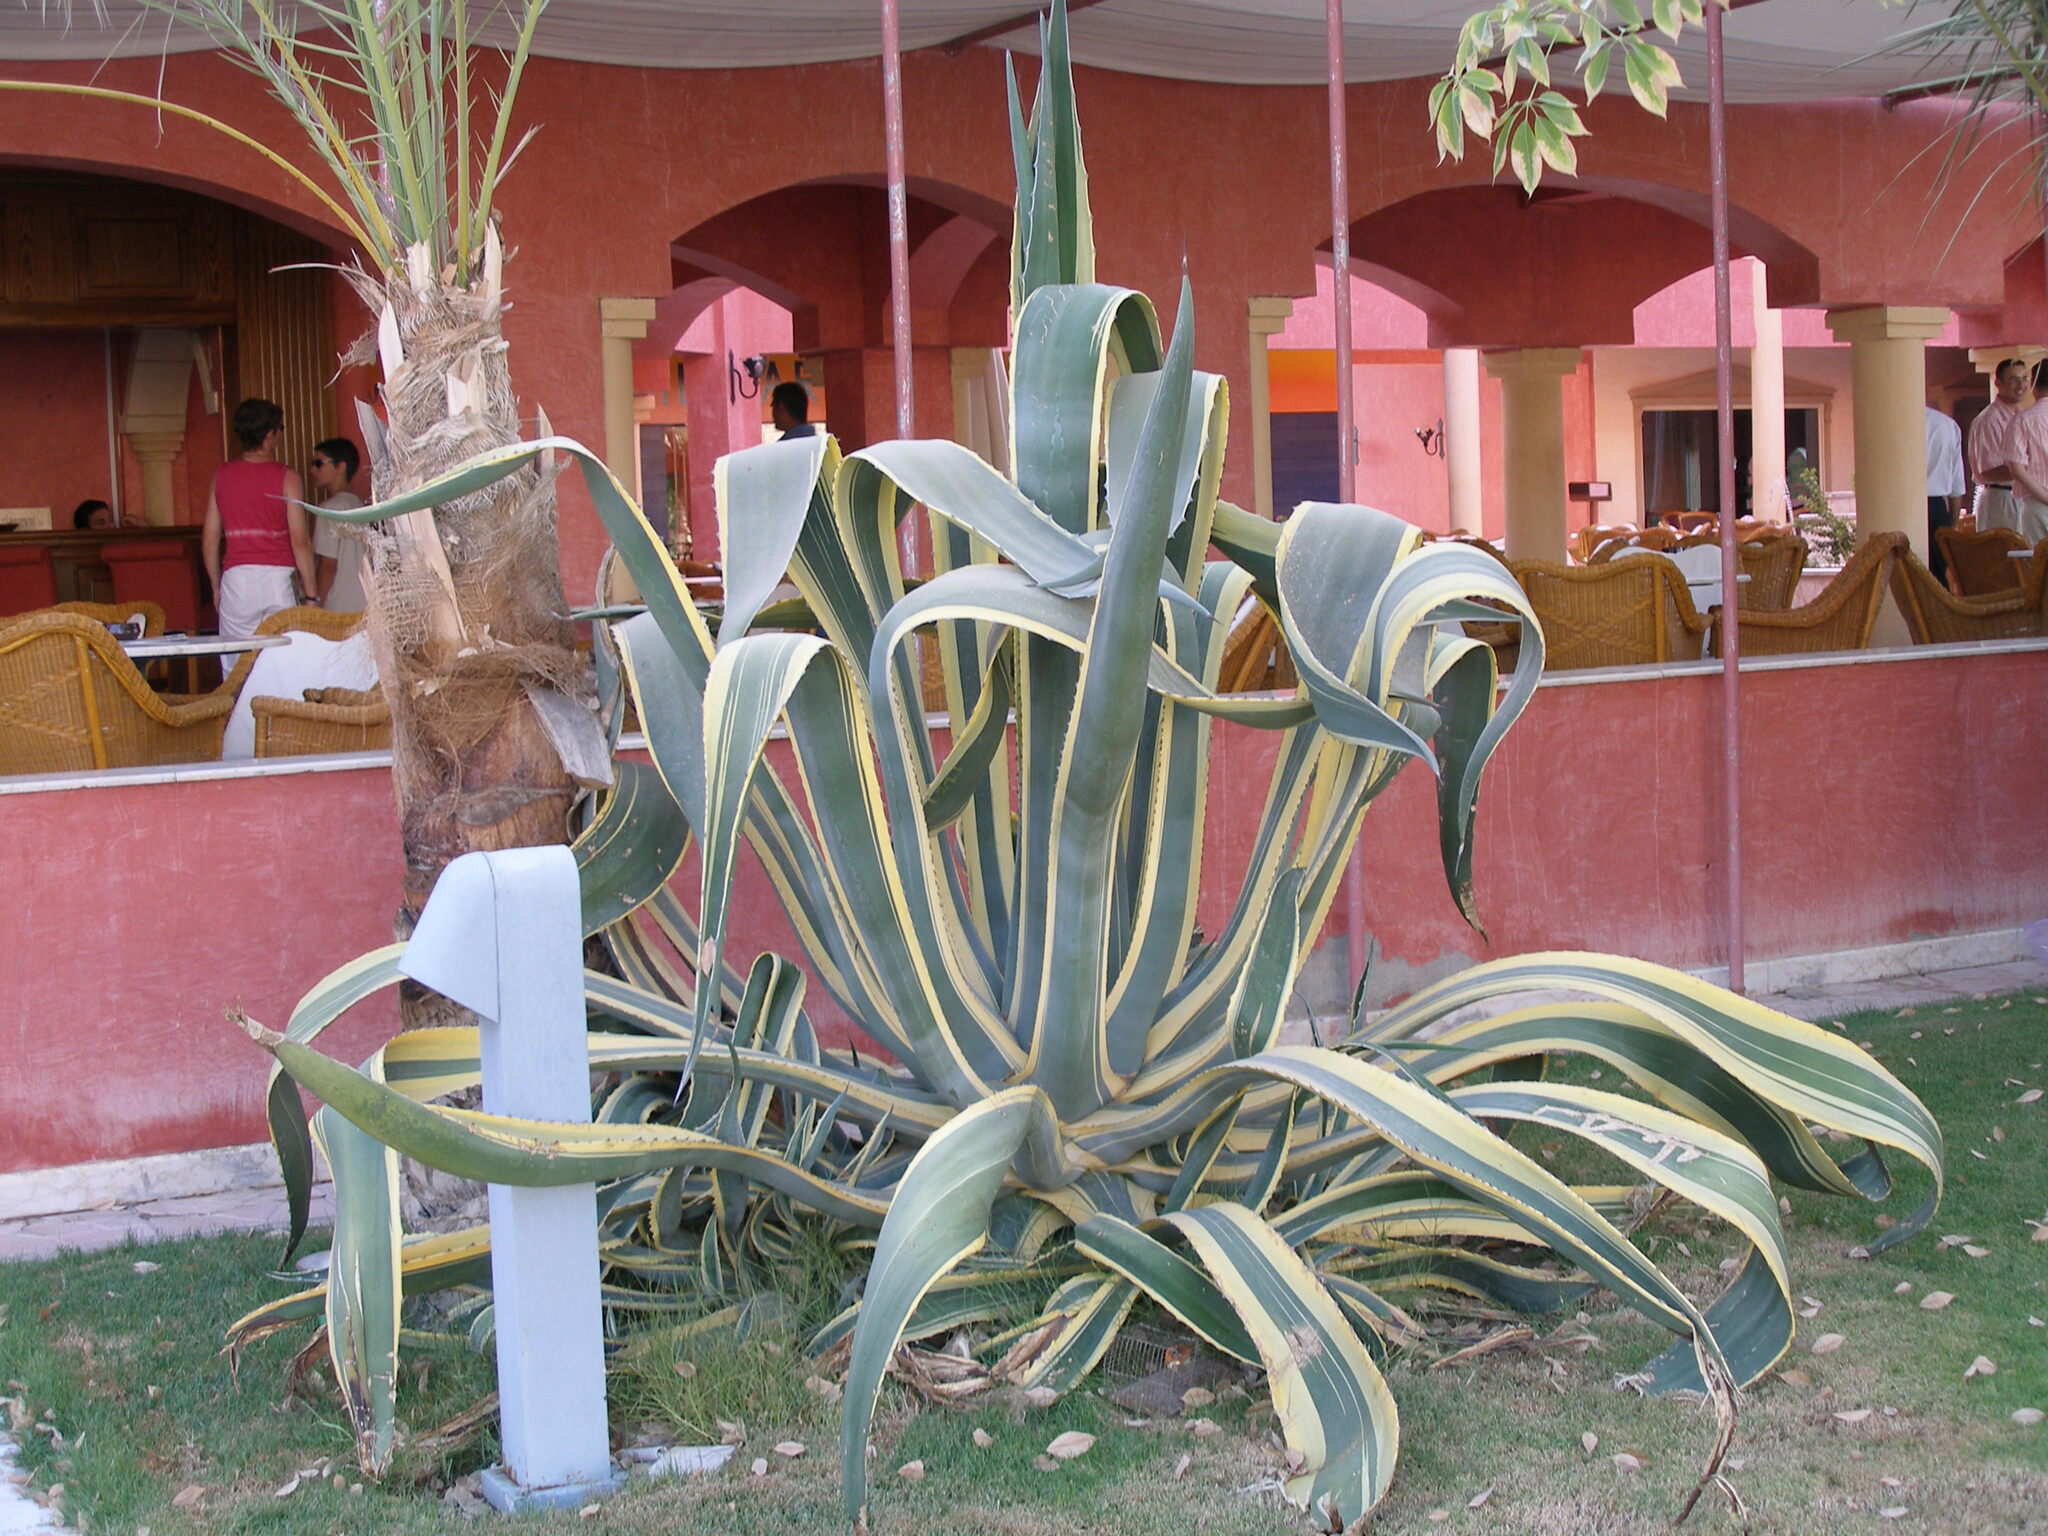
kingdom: Plantae
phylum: Tracheophyta
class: Liliopsida
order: Asparagales
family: Asparagaceae
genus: Agave
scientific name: Agave americana
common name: Centuryplant
